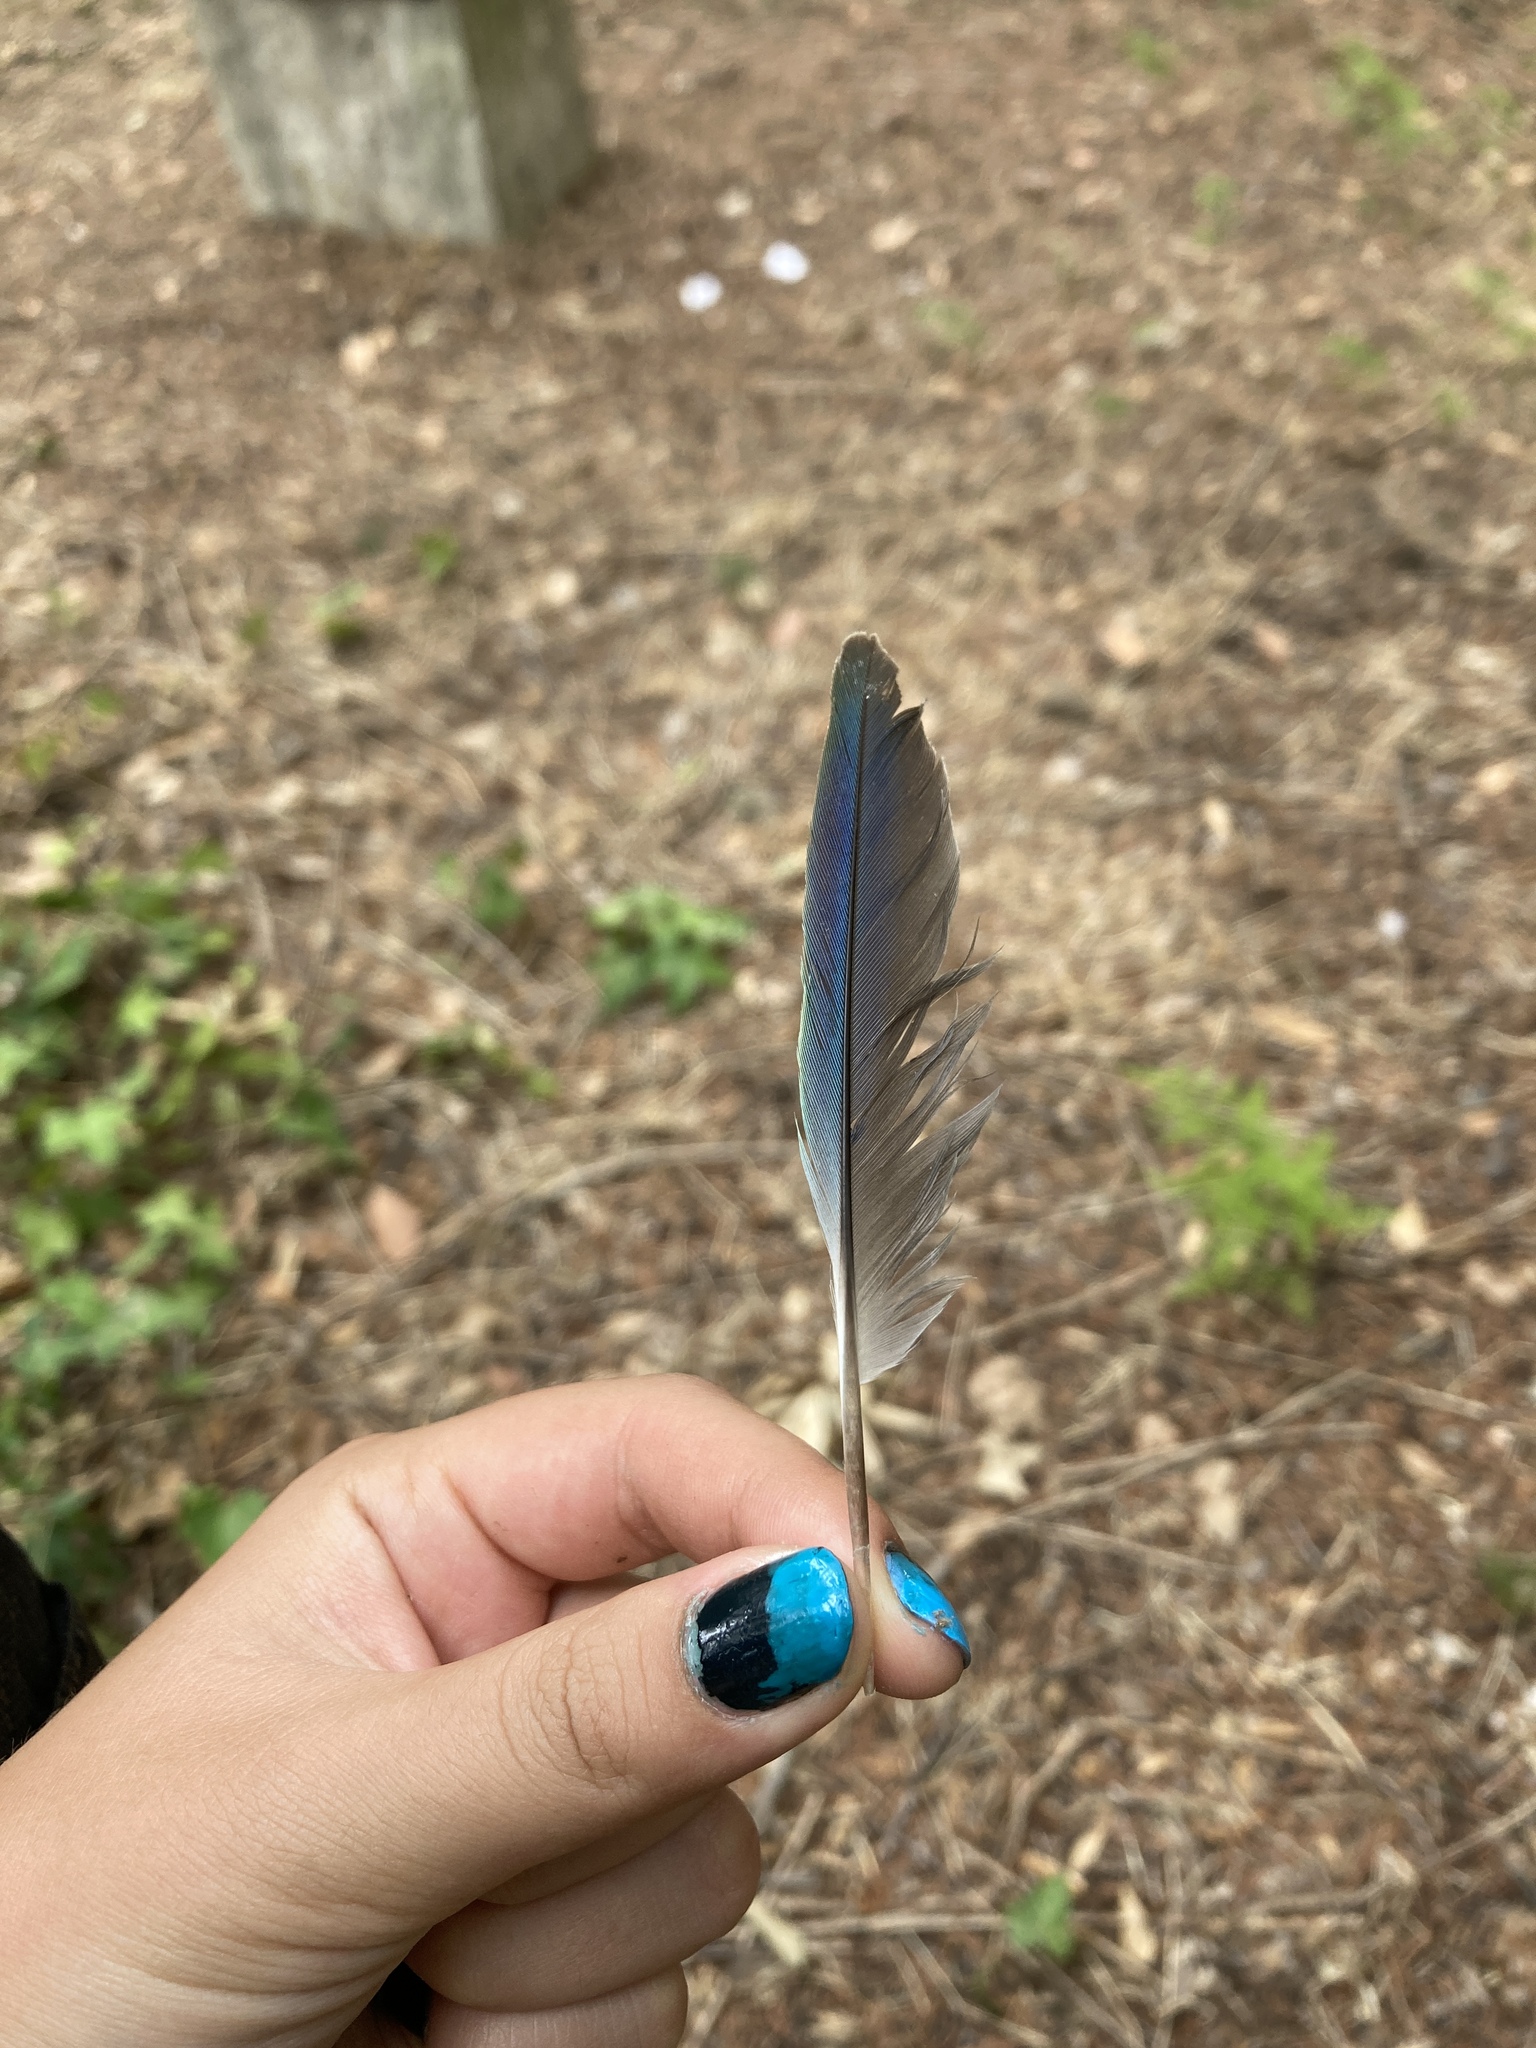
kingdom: Animalia
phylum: Chordata
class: Aves
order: Psittaciformes
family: Psittacidae
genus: Myiopsitta
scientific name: Myiopsitta monachus
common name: Monk parakeet
